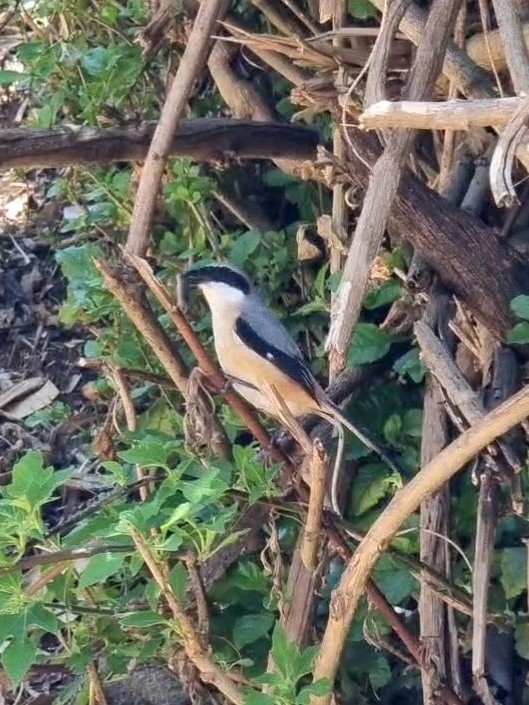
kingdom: Animalia
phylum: Chordata
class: Aves
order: Passeriformes
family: Laniidae
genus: Lanius
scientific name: Lanius schach
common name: Long-tailed shrike
